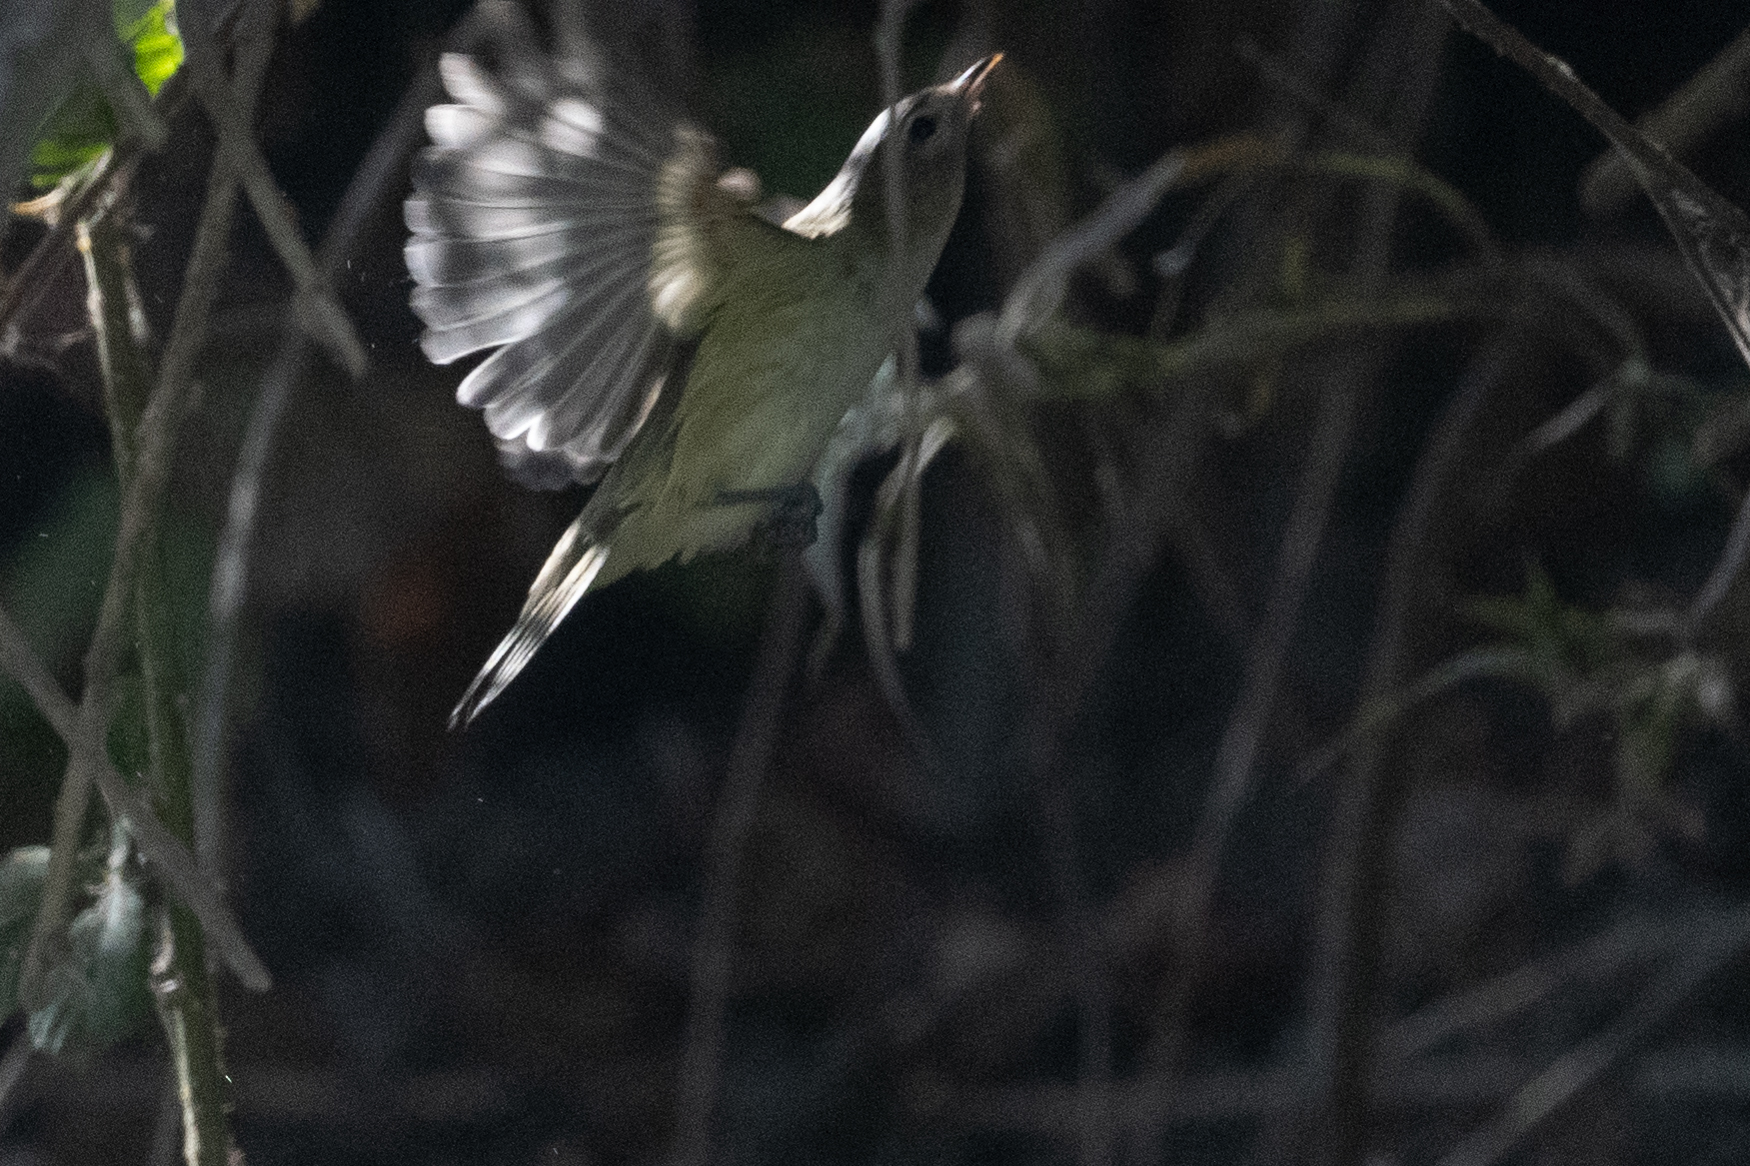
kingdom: Animalia
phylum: Chordata
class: Aves
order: Passeriformes
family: Vireonidae
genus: Vireo
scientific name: Vireo gilvus
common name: Warbling vireo
